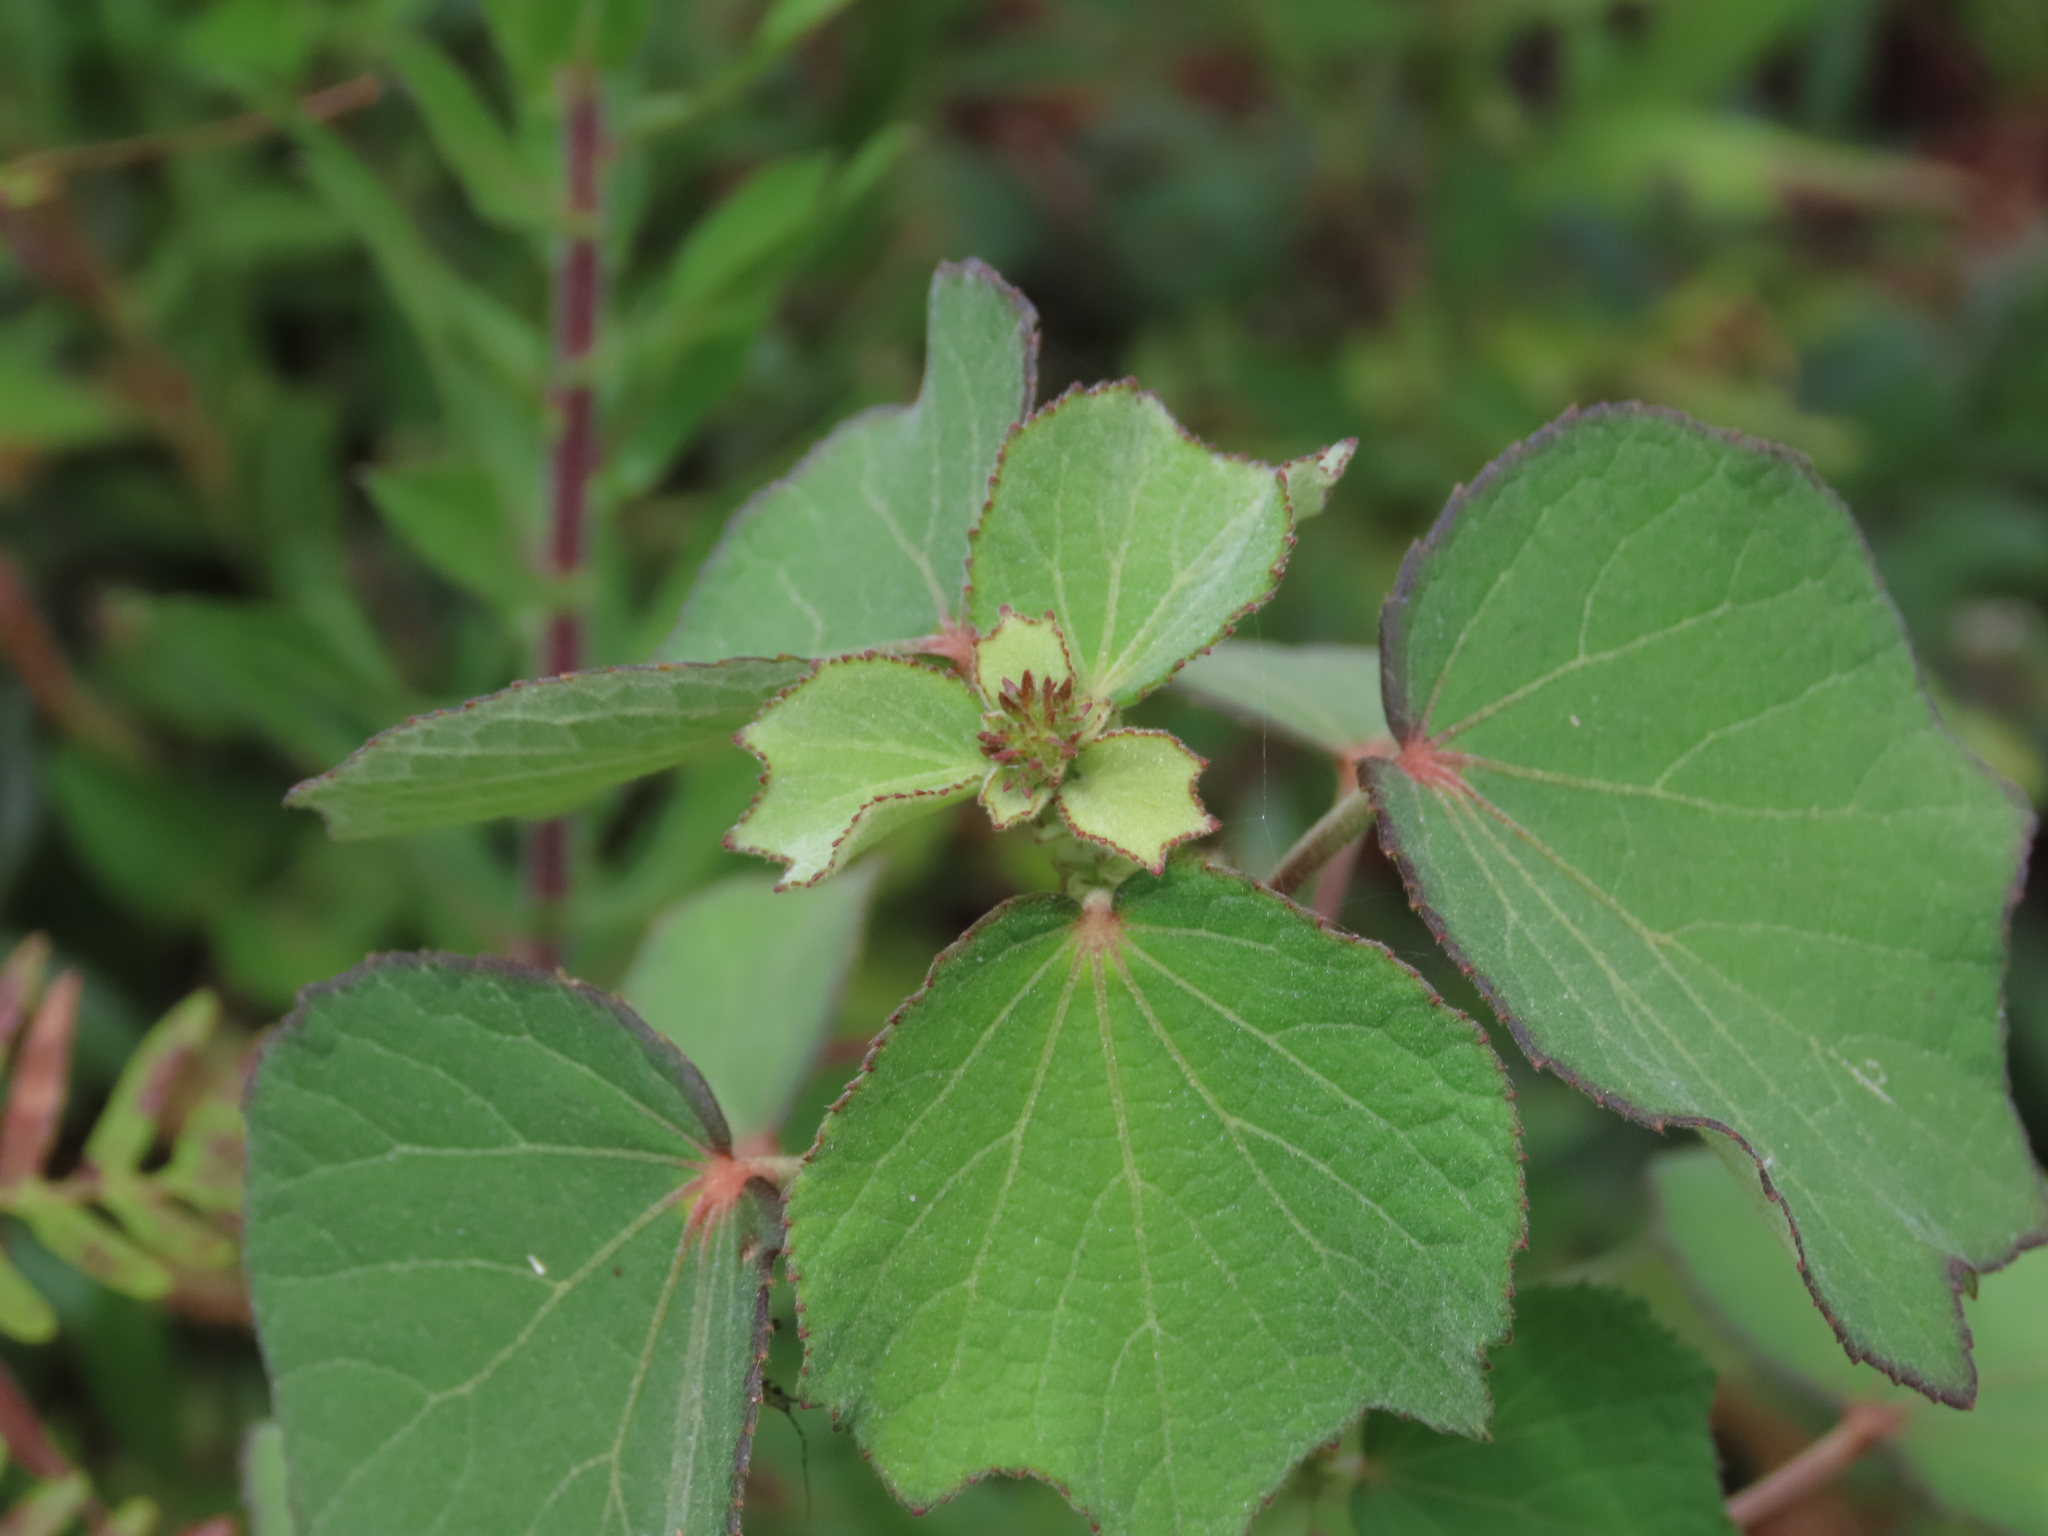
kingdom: Plantae
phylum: Tracheophyta
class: Magnoliopsida
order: Malvales
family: Malvaceae
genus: Urena
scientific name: Urena lobata
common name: Caesarweed
